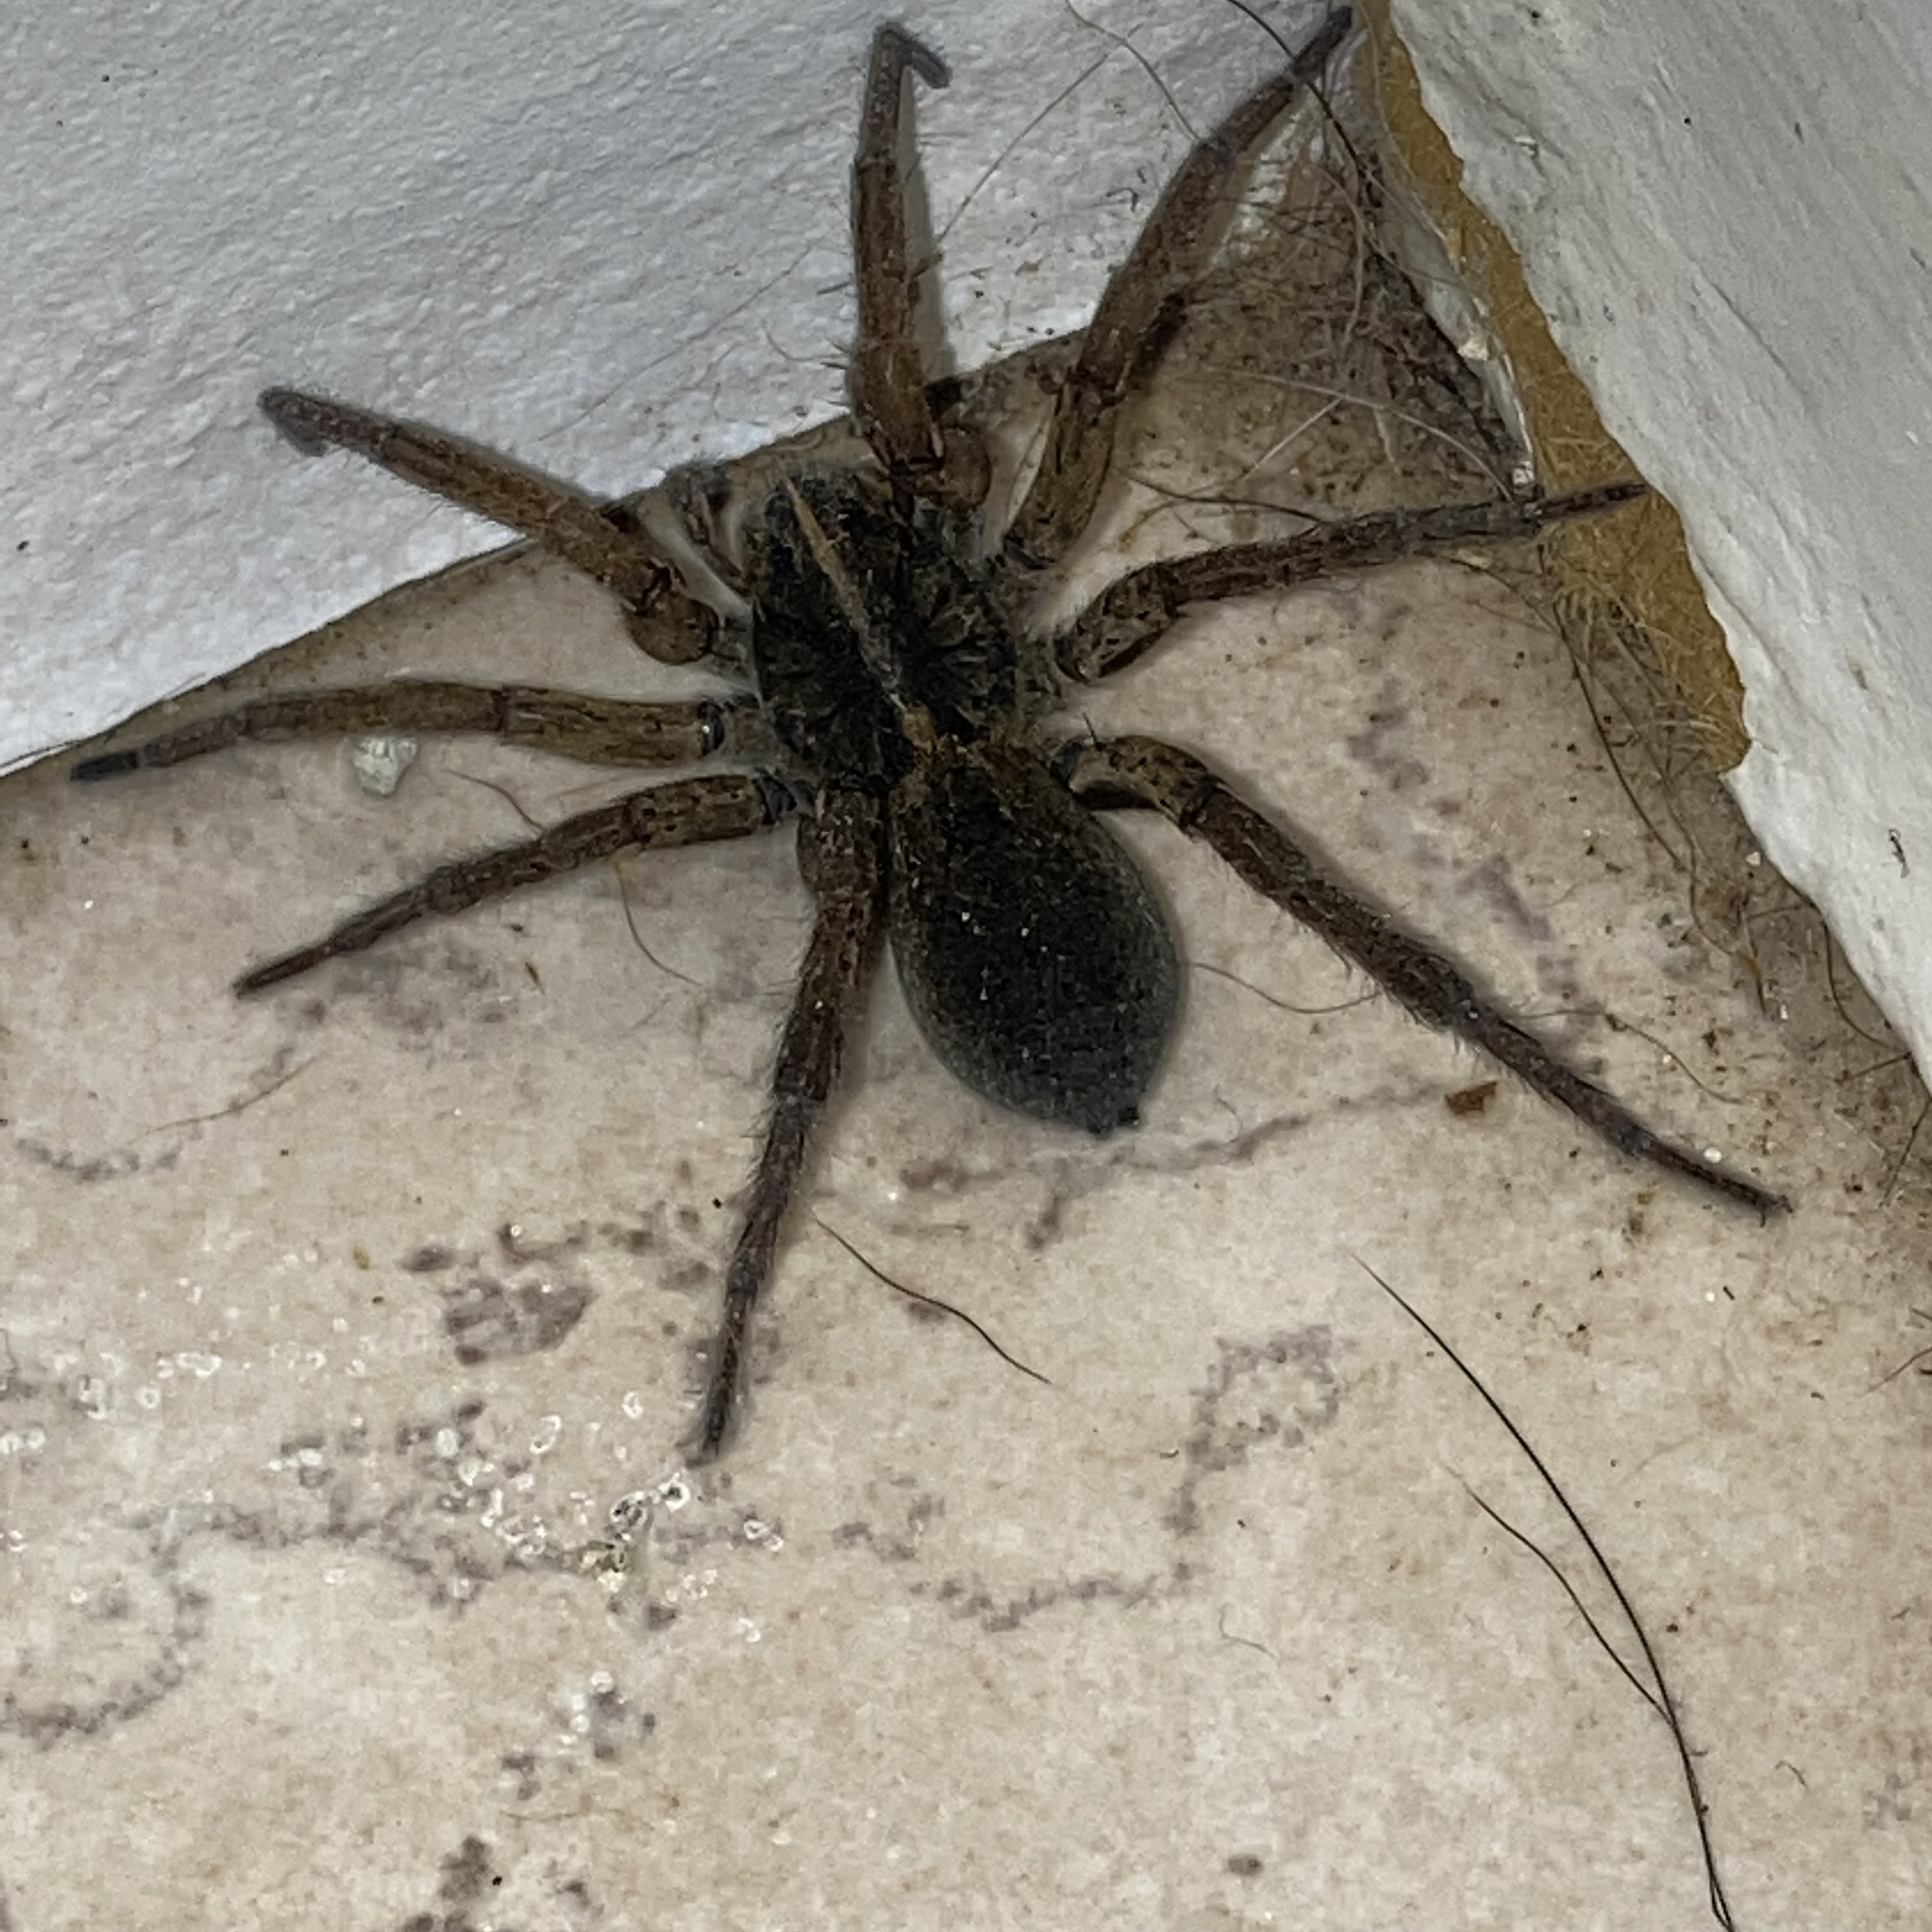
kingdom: Animalia
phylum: Arthropoda
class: Arachnida
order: Araneae
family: Lycosidae
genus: Tigrosa
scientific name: Tigrosa aspersa
